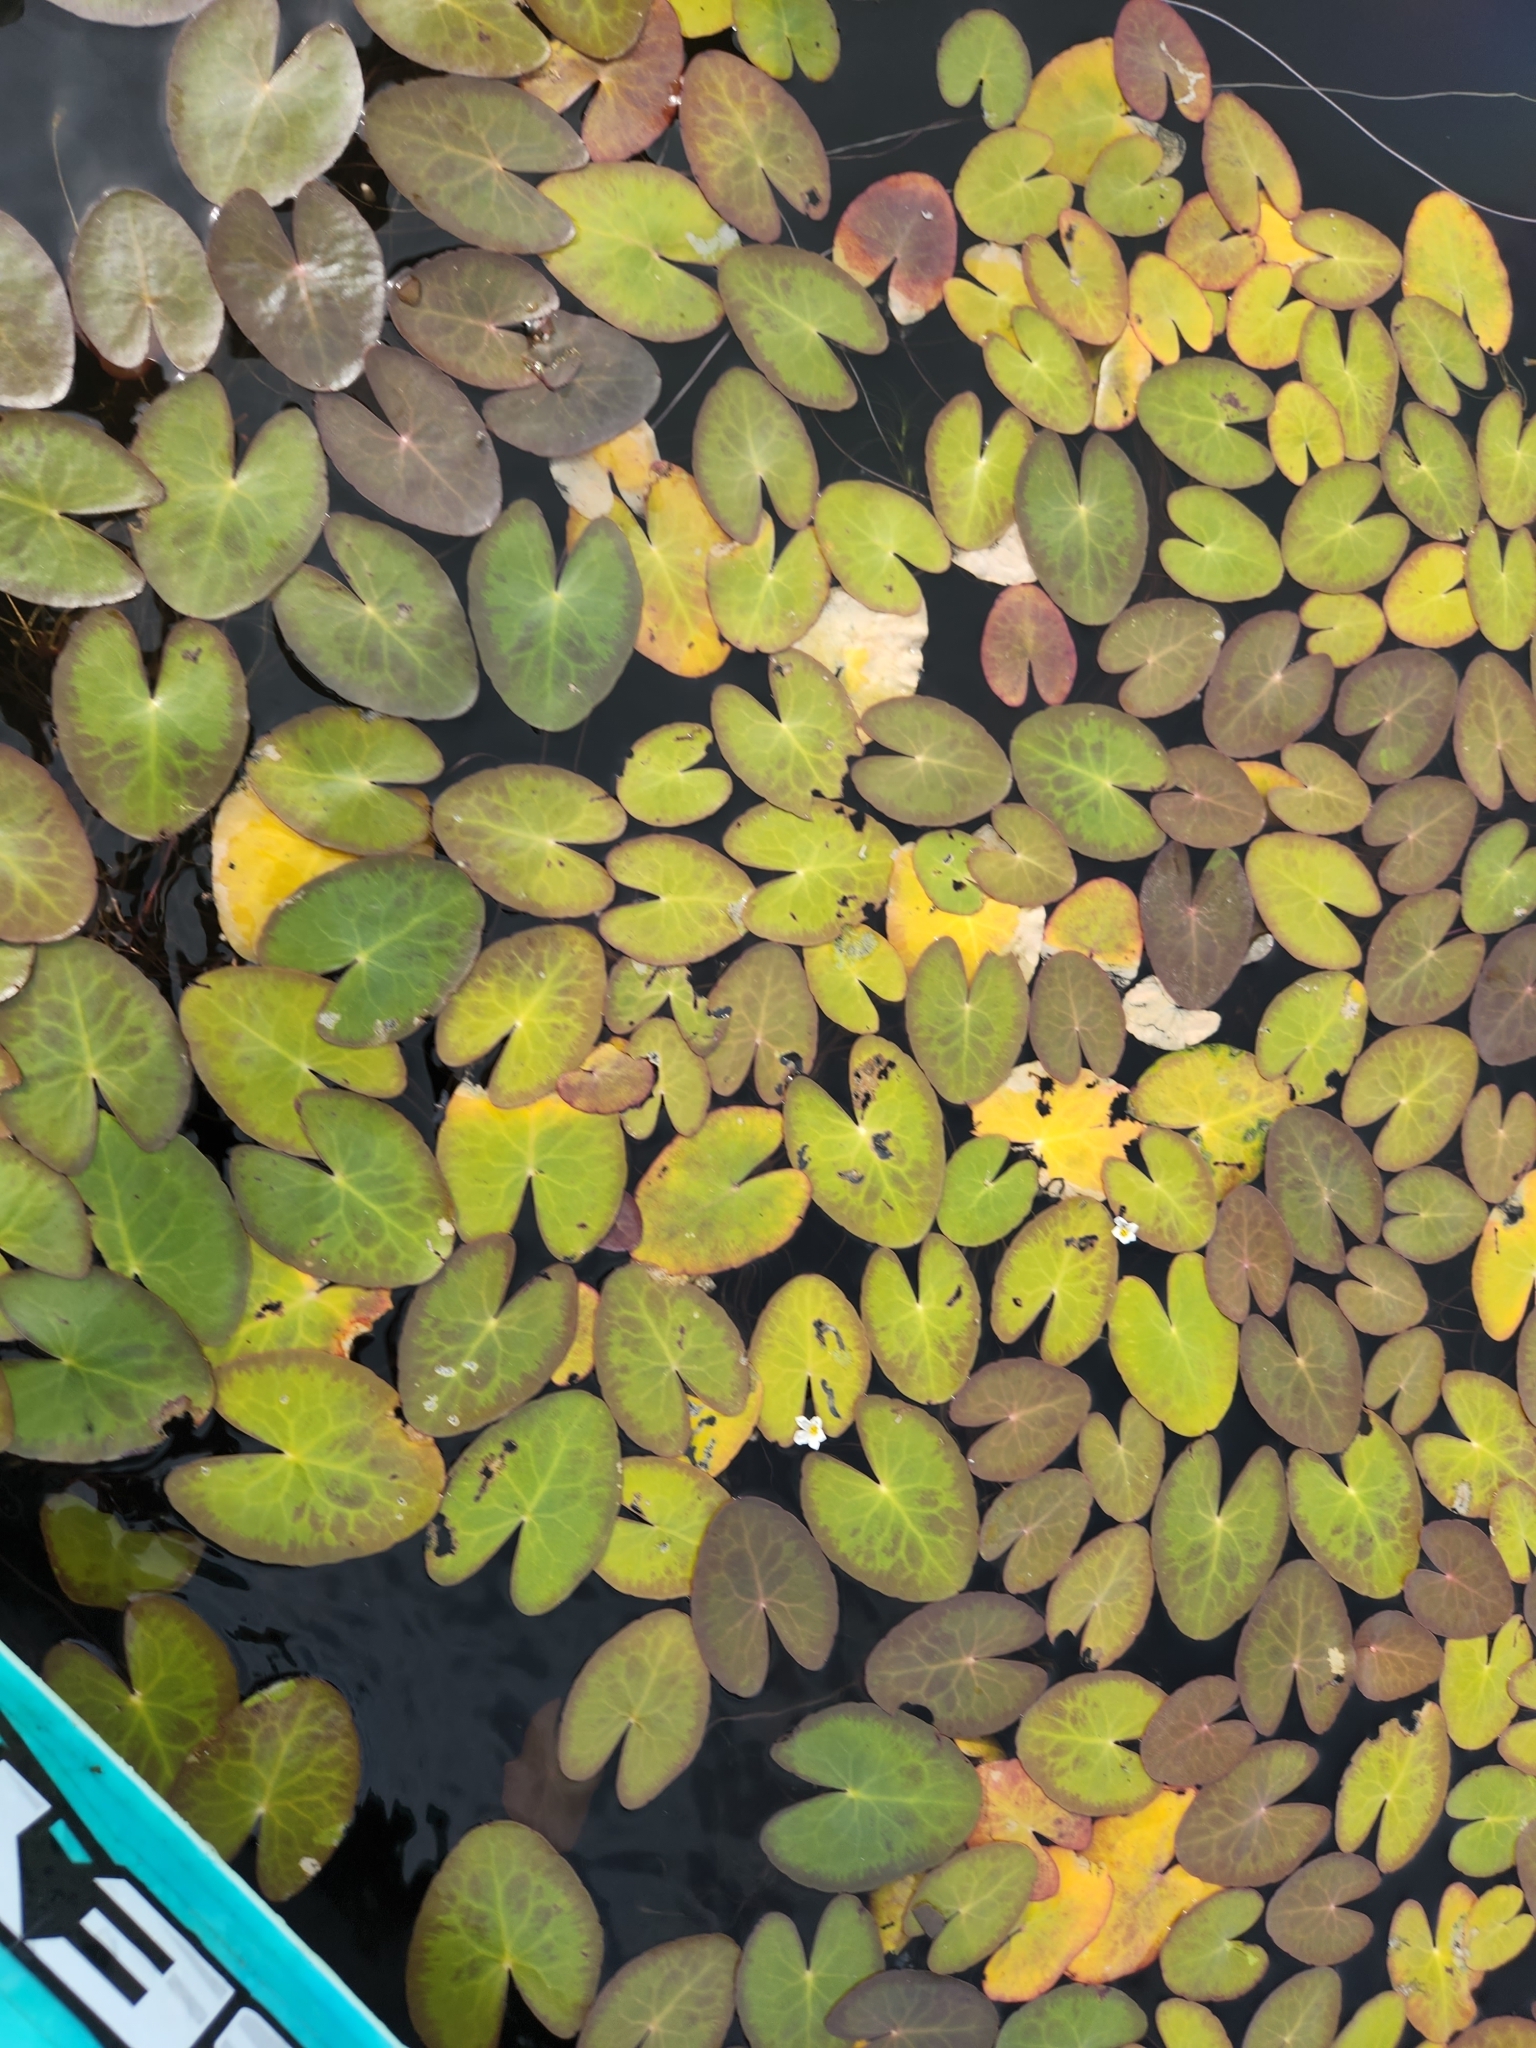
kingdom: Plantae
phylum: Tracheophyta
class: Magnoliopsida
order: Asterales
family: Menyanthaceae
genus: Nymphoides
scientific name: Nymphoides cordata
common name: Eight-angled floatingheart
